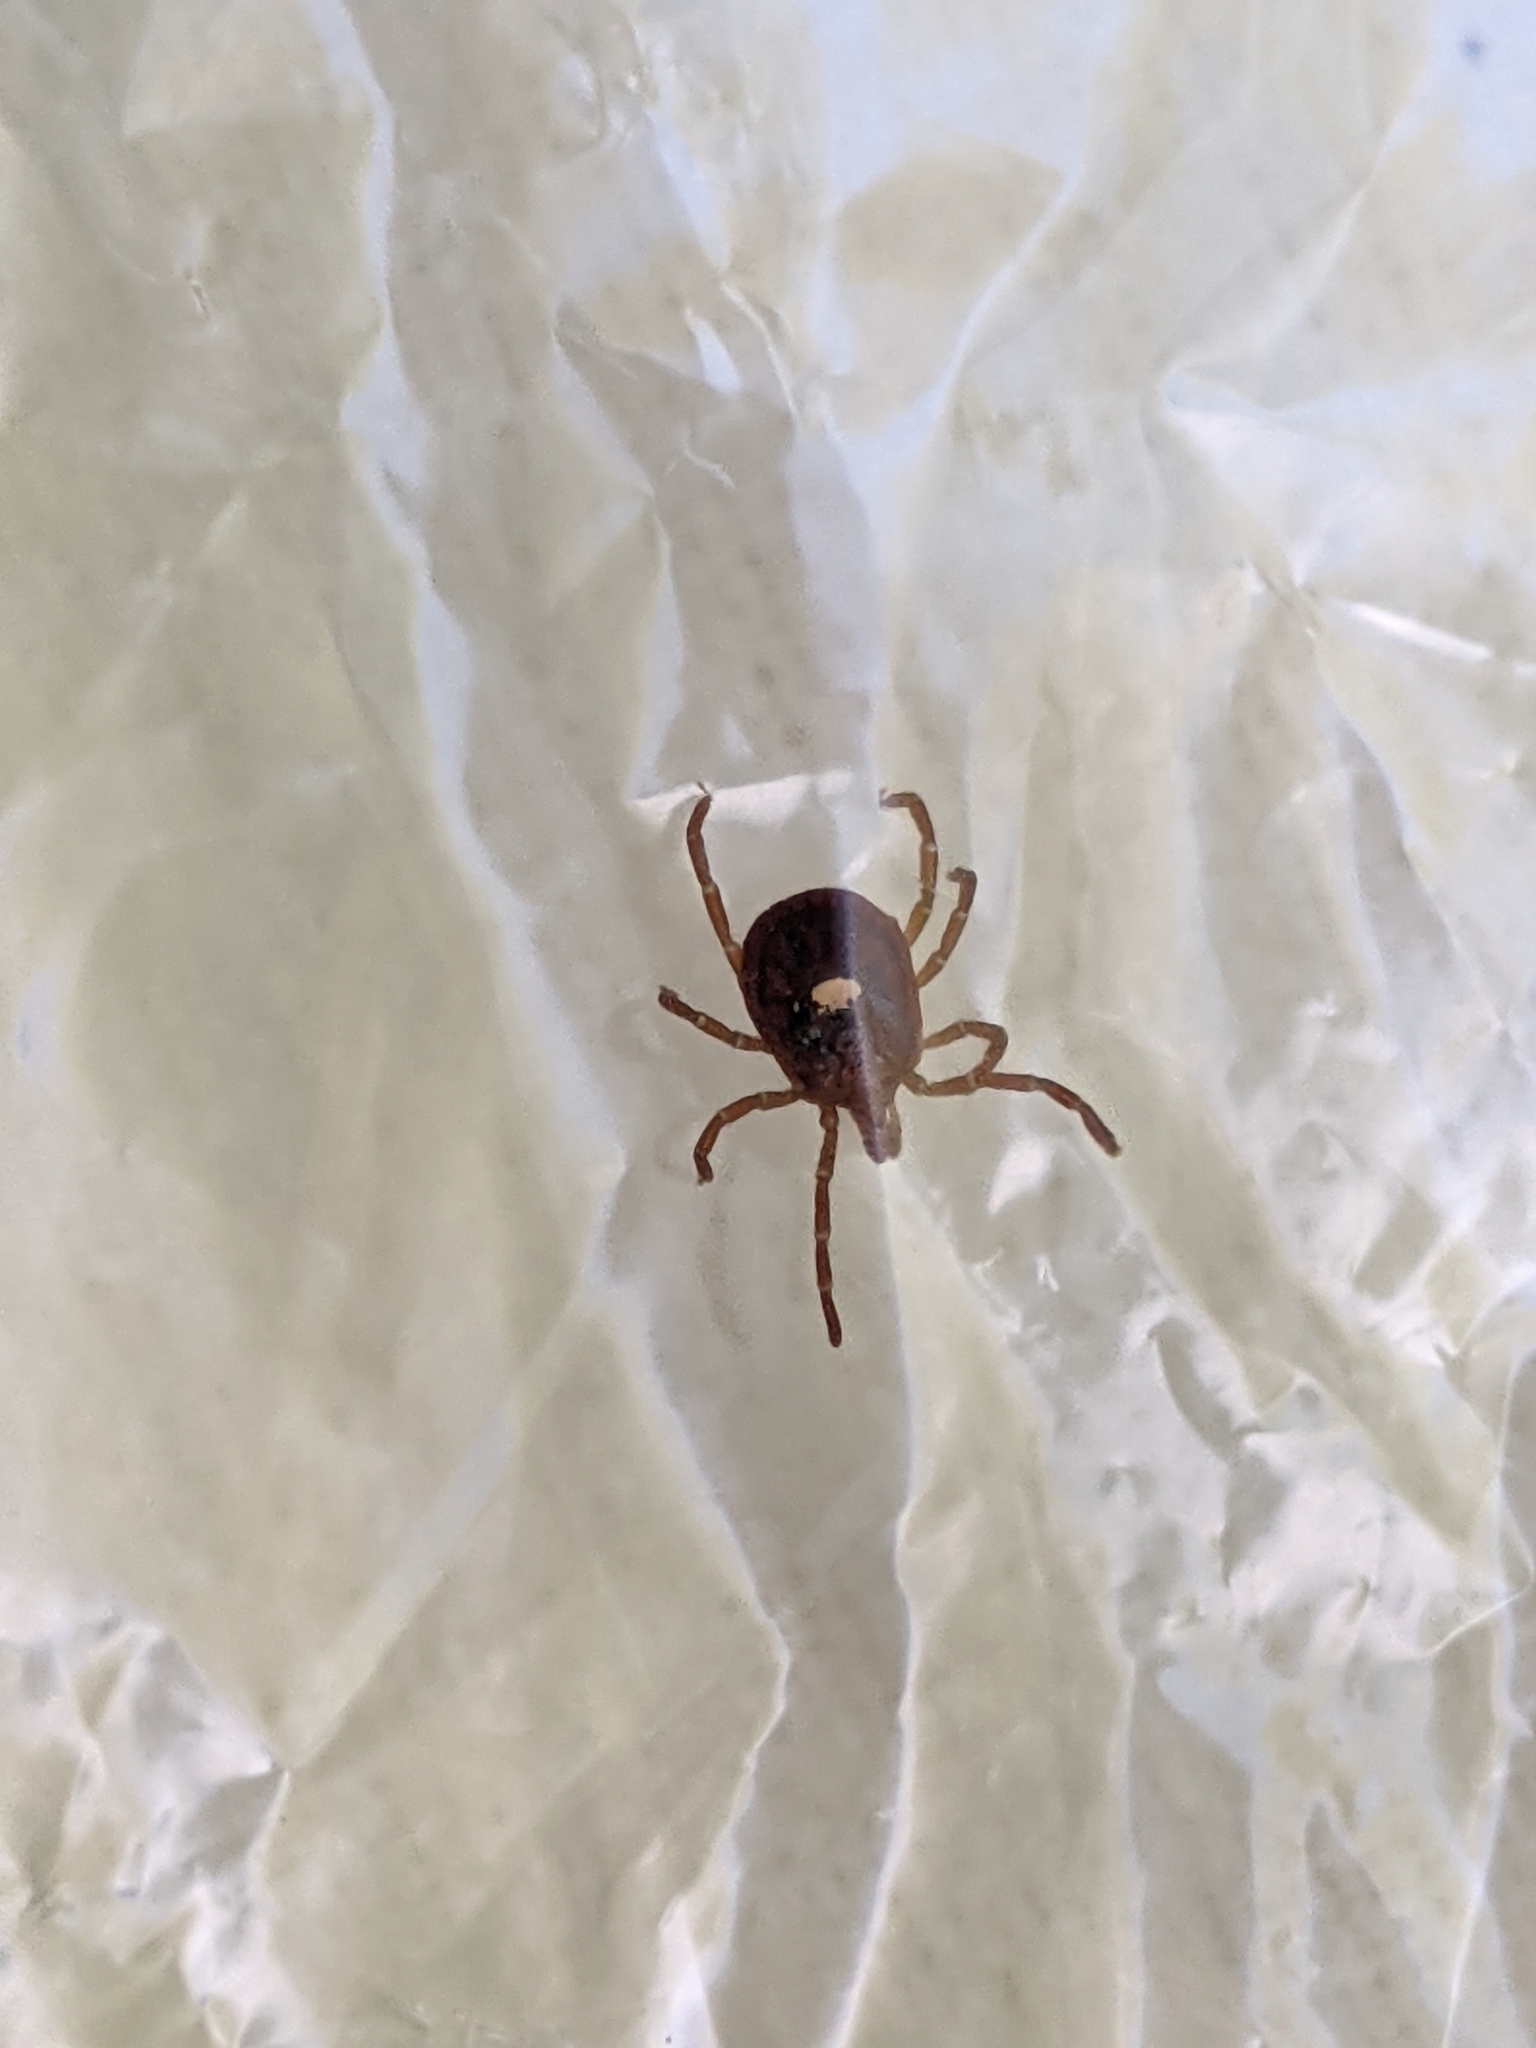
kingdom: Animalia
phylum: Arthropoda
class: Arachnida
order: Ixodida
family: Ixodidae
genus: Amblyomma
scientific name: Amblyomma americanum
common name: Lone star tick
